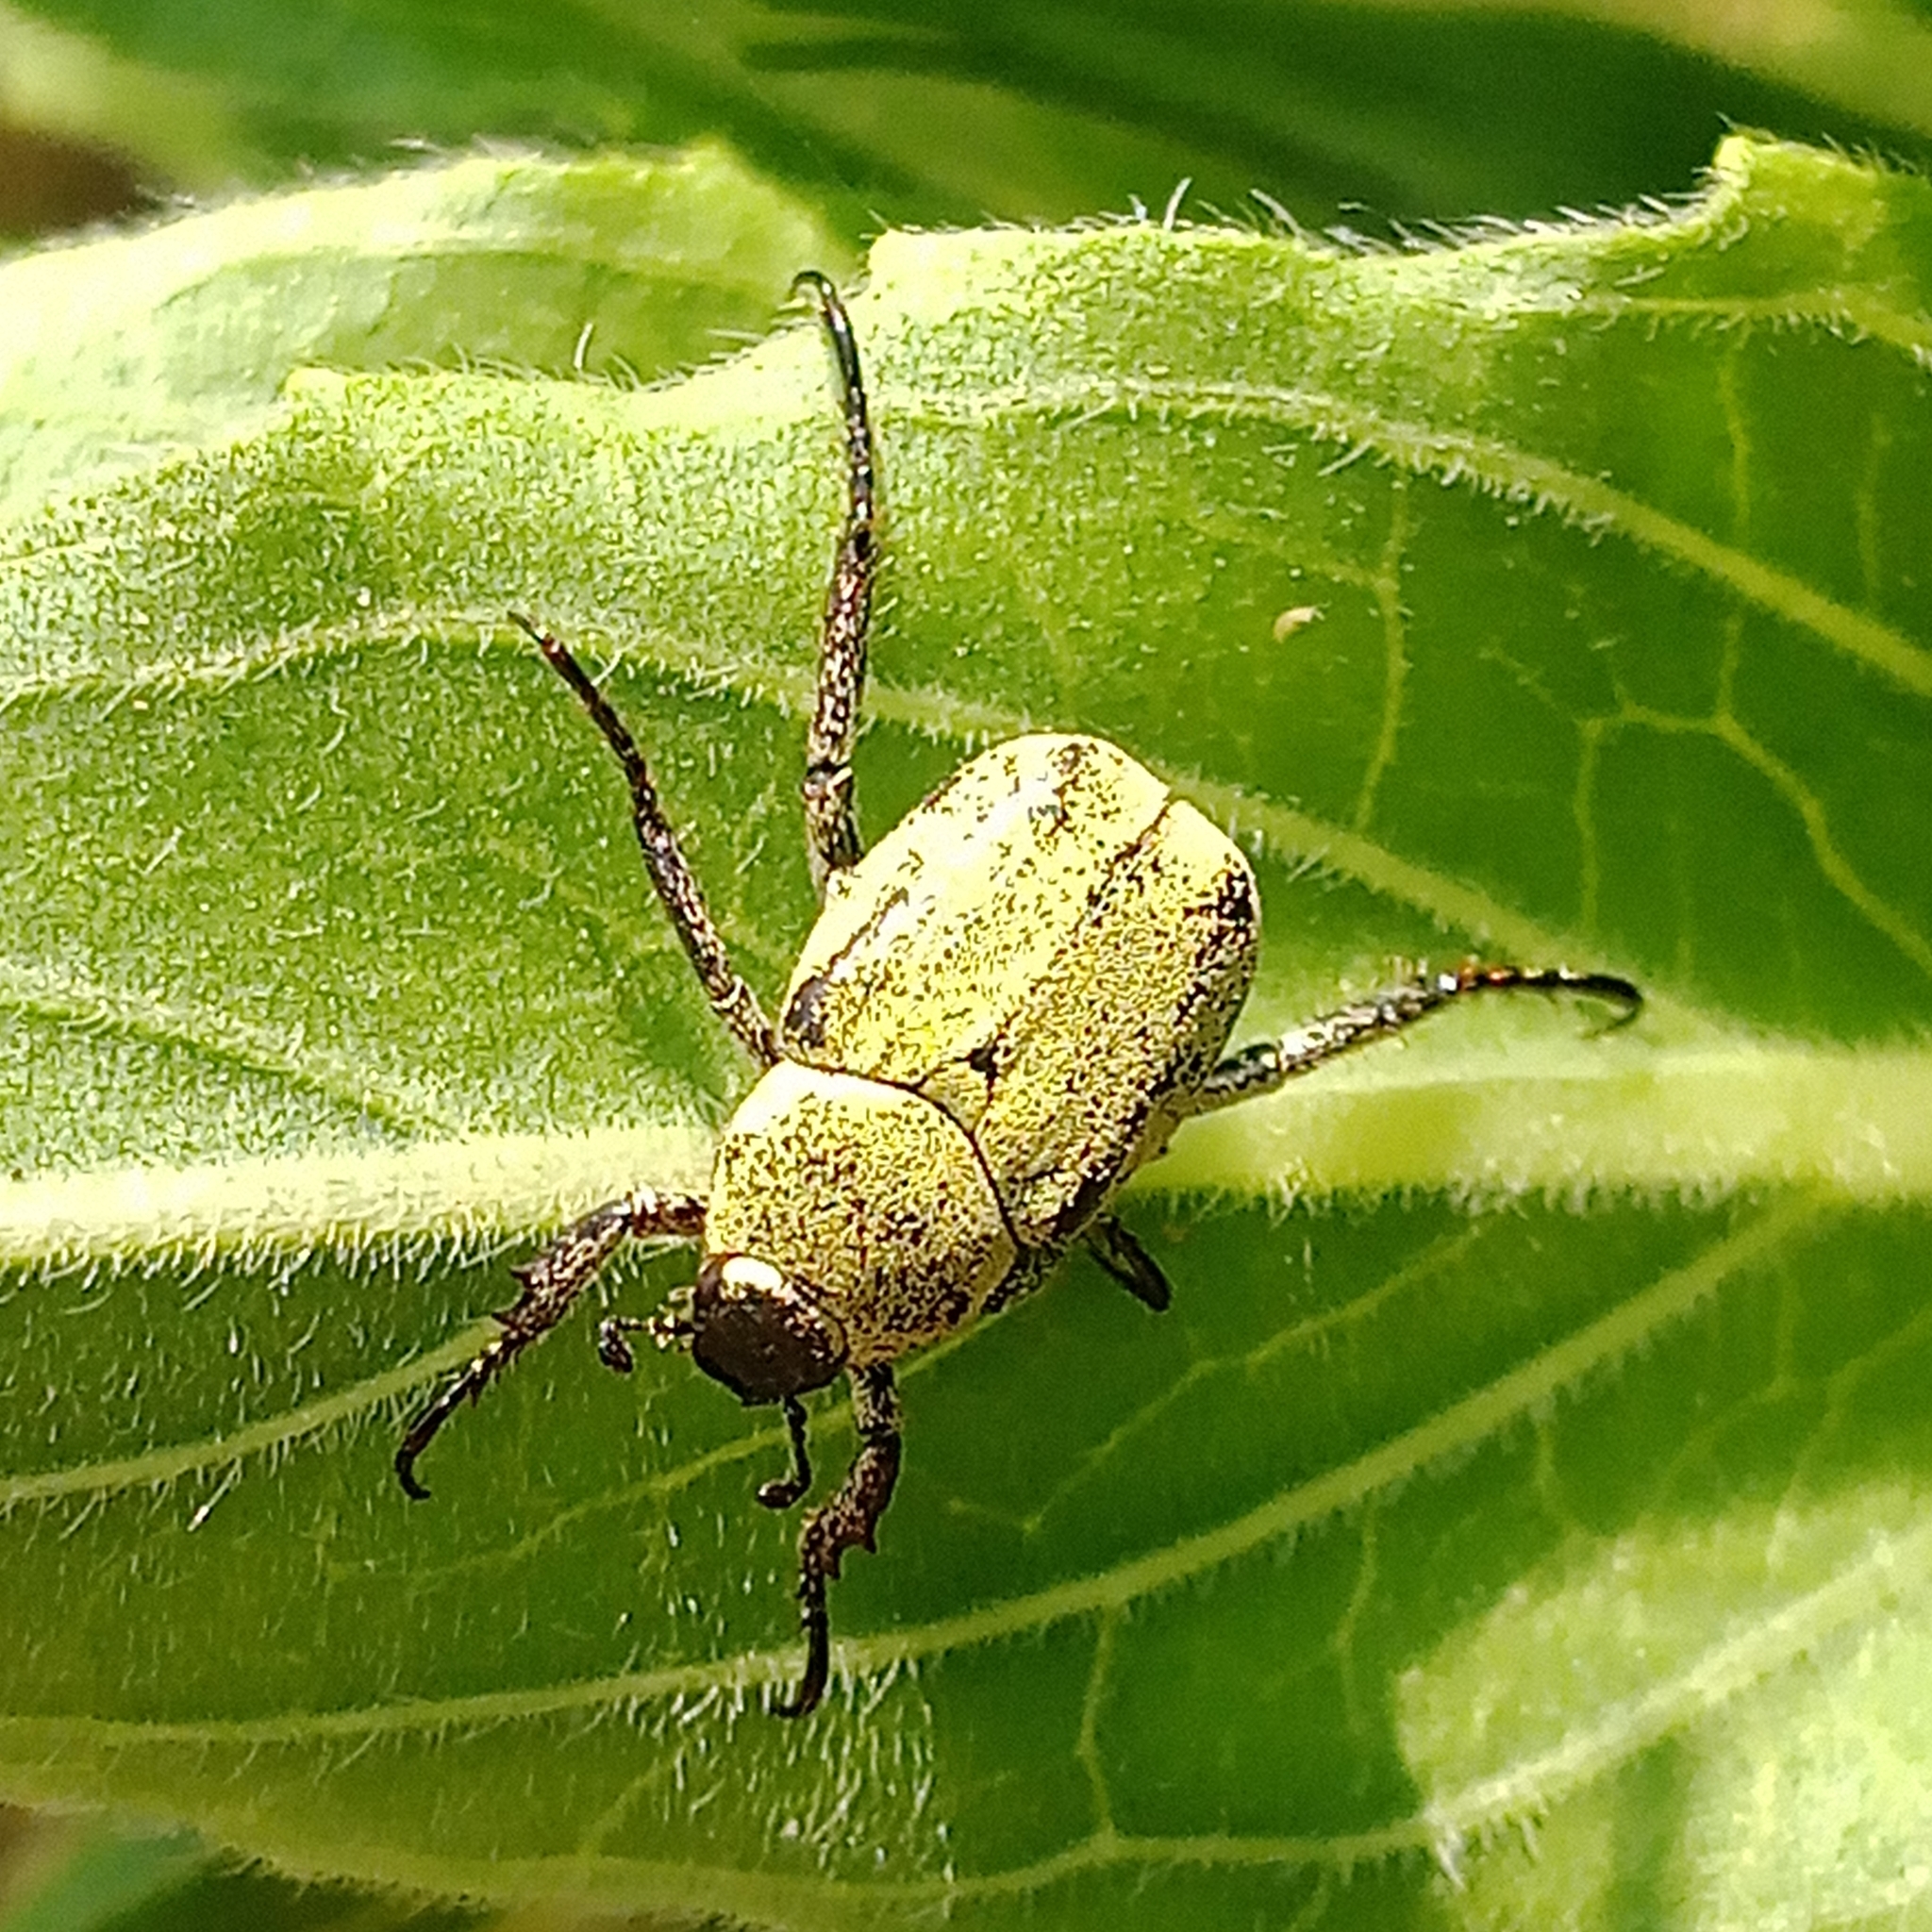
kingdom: Animalia
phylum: Arthropoda
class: Insecta
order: Coleoptera
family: Scarabaeidae
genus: Hoplia
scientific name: Hoplia parvula
